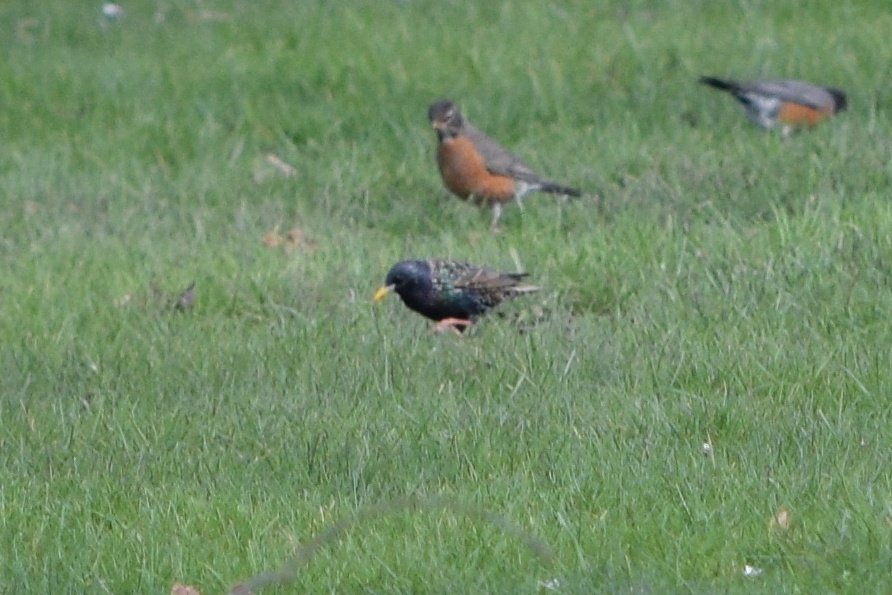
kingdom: Animalia
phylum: Chordata
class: Aves
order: Passeriformes
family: Sturnidae
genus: Sturnus
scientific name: Sturnus vulgaris
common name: Common starling
